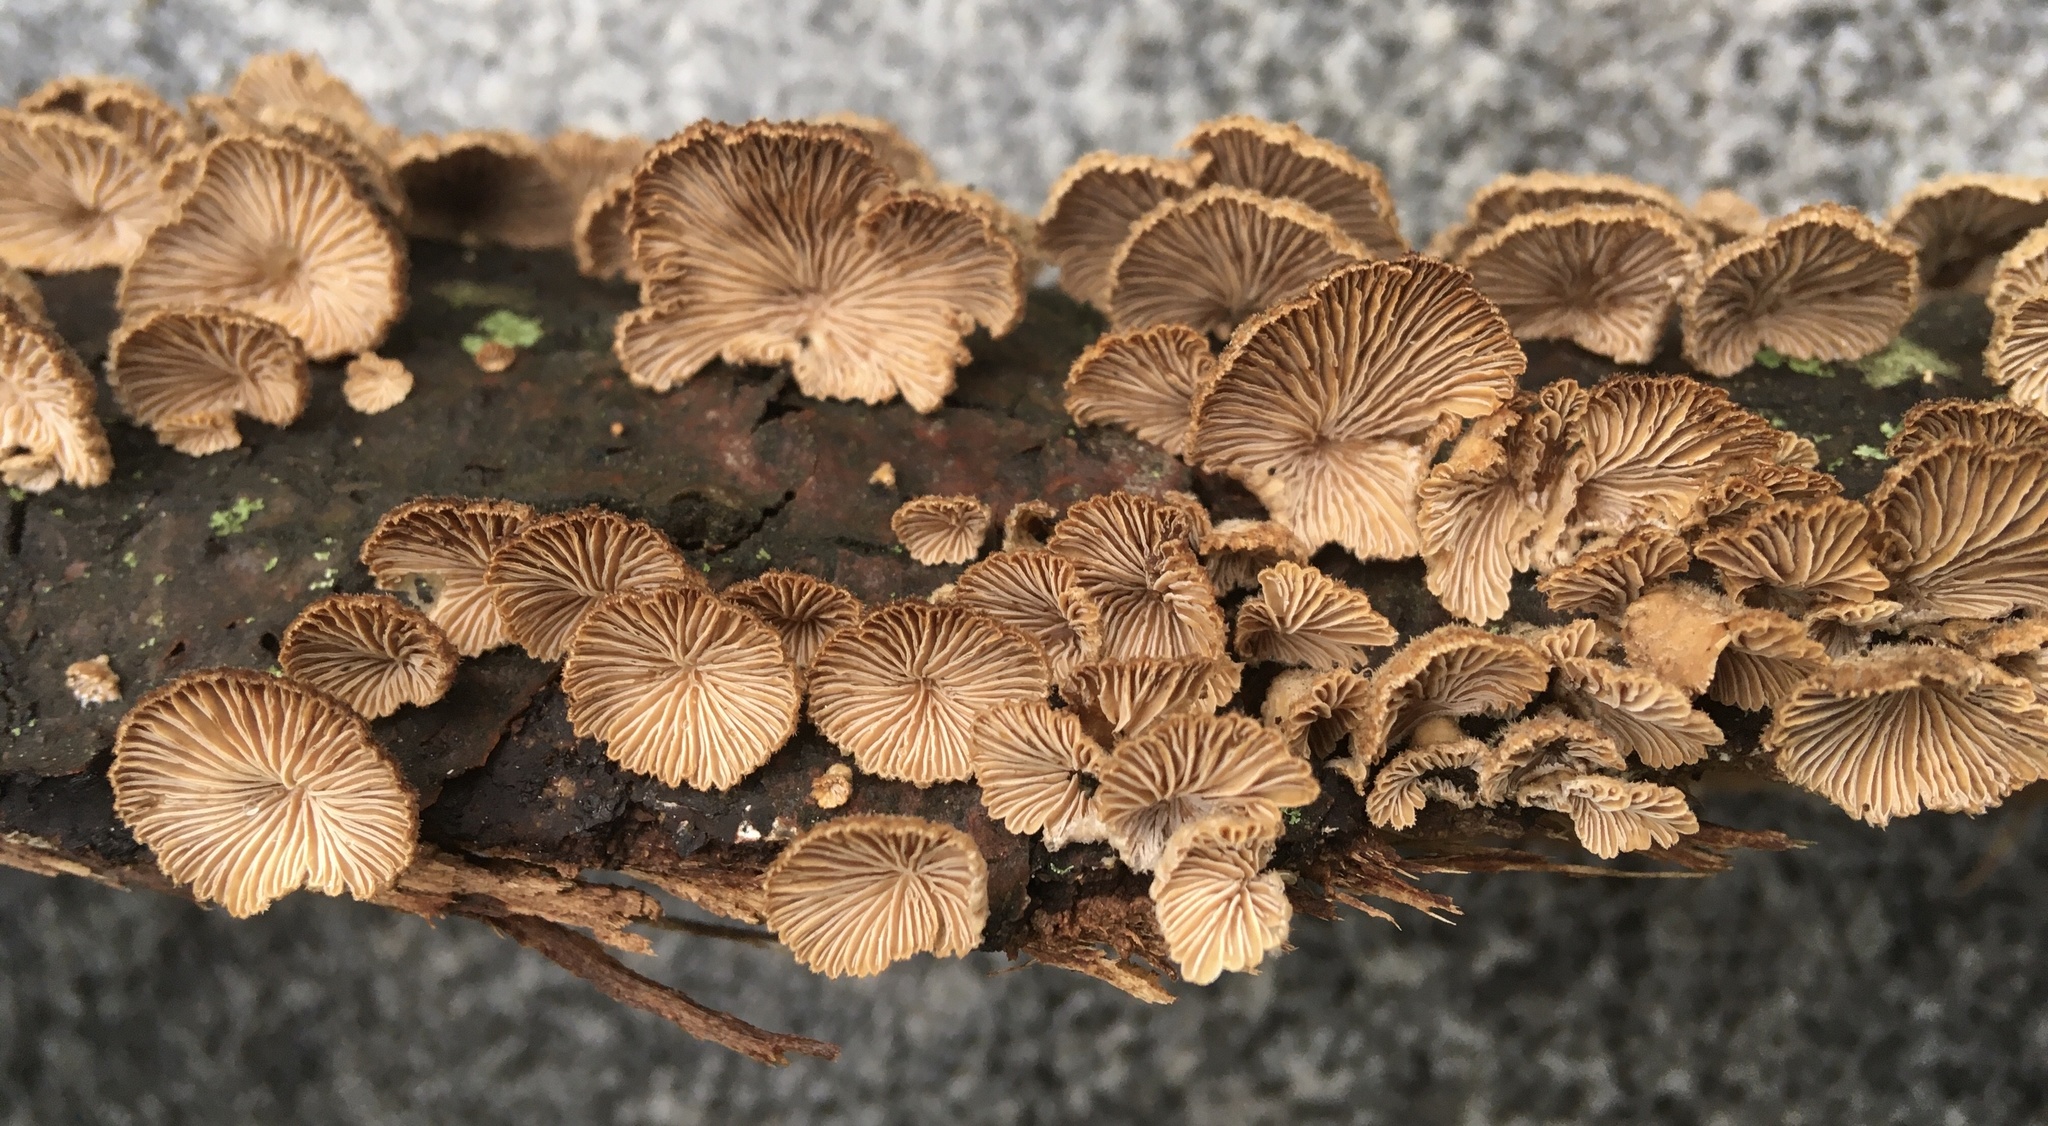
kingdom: Fungi
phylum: Basidiomycota
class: Agaricomycetes
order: Agaricales
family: Schizophyllaceae
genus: Schizophyllum
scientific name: Schizophyllum commune
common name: Common porecrust
